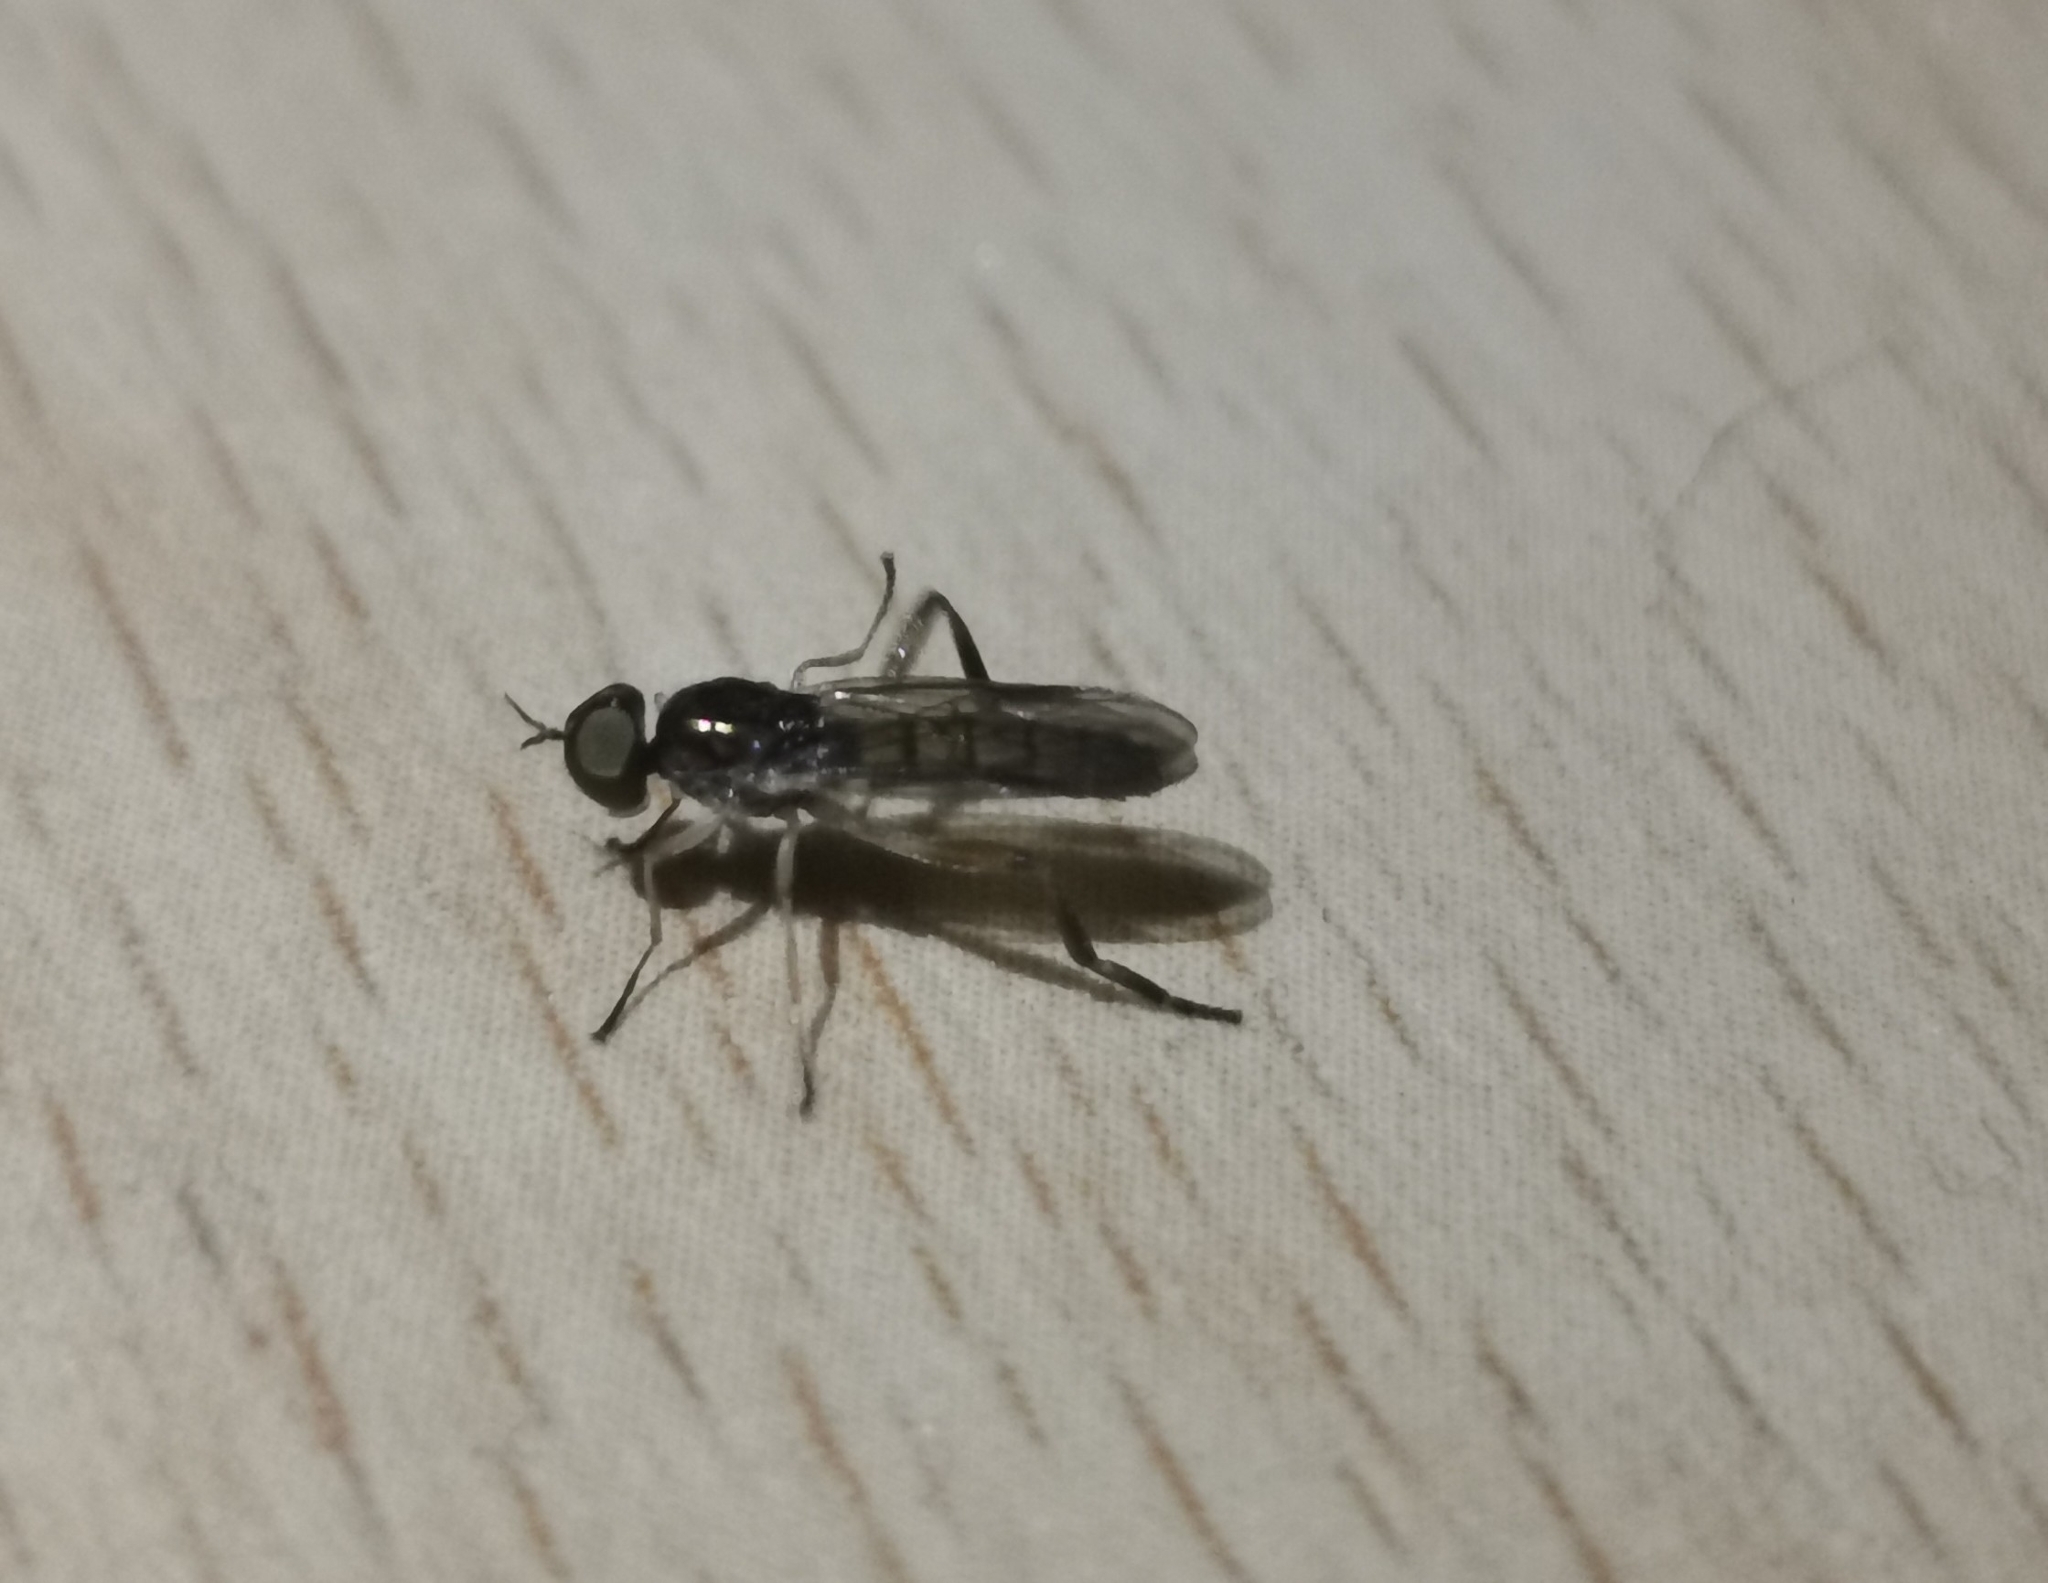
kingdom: Animalia
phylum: Arthropoda
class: Insecta
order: Diptera
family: Stratiomyidae
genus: Chorisops
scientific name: Chorisops tibialis
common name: Dull four-spined legionnaire
